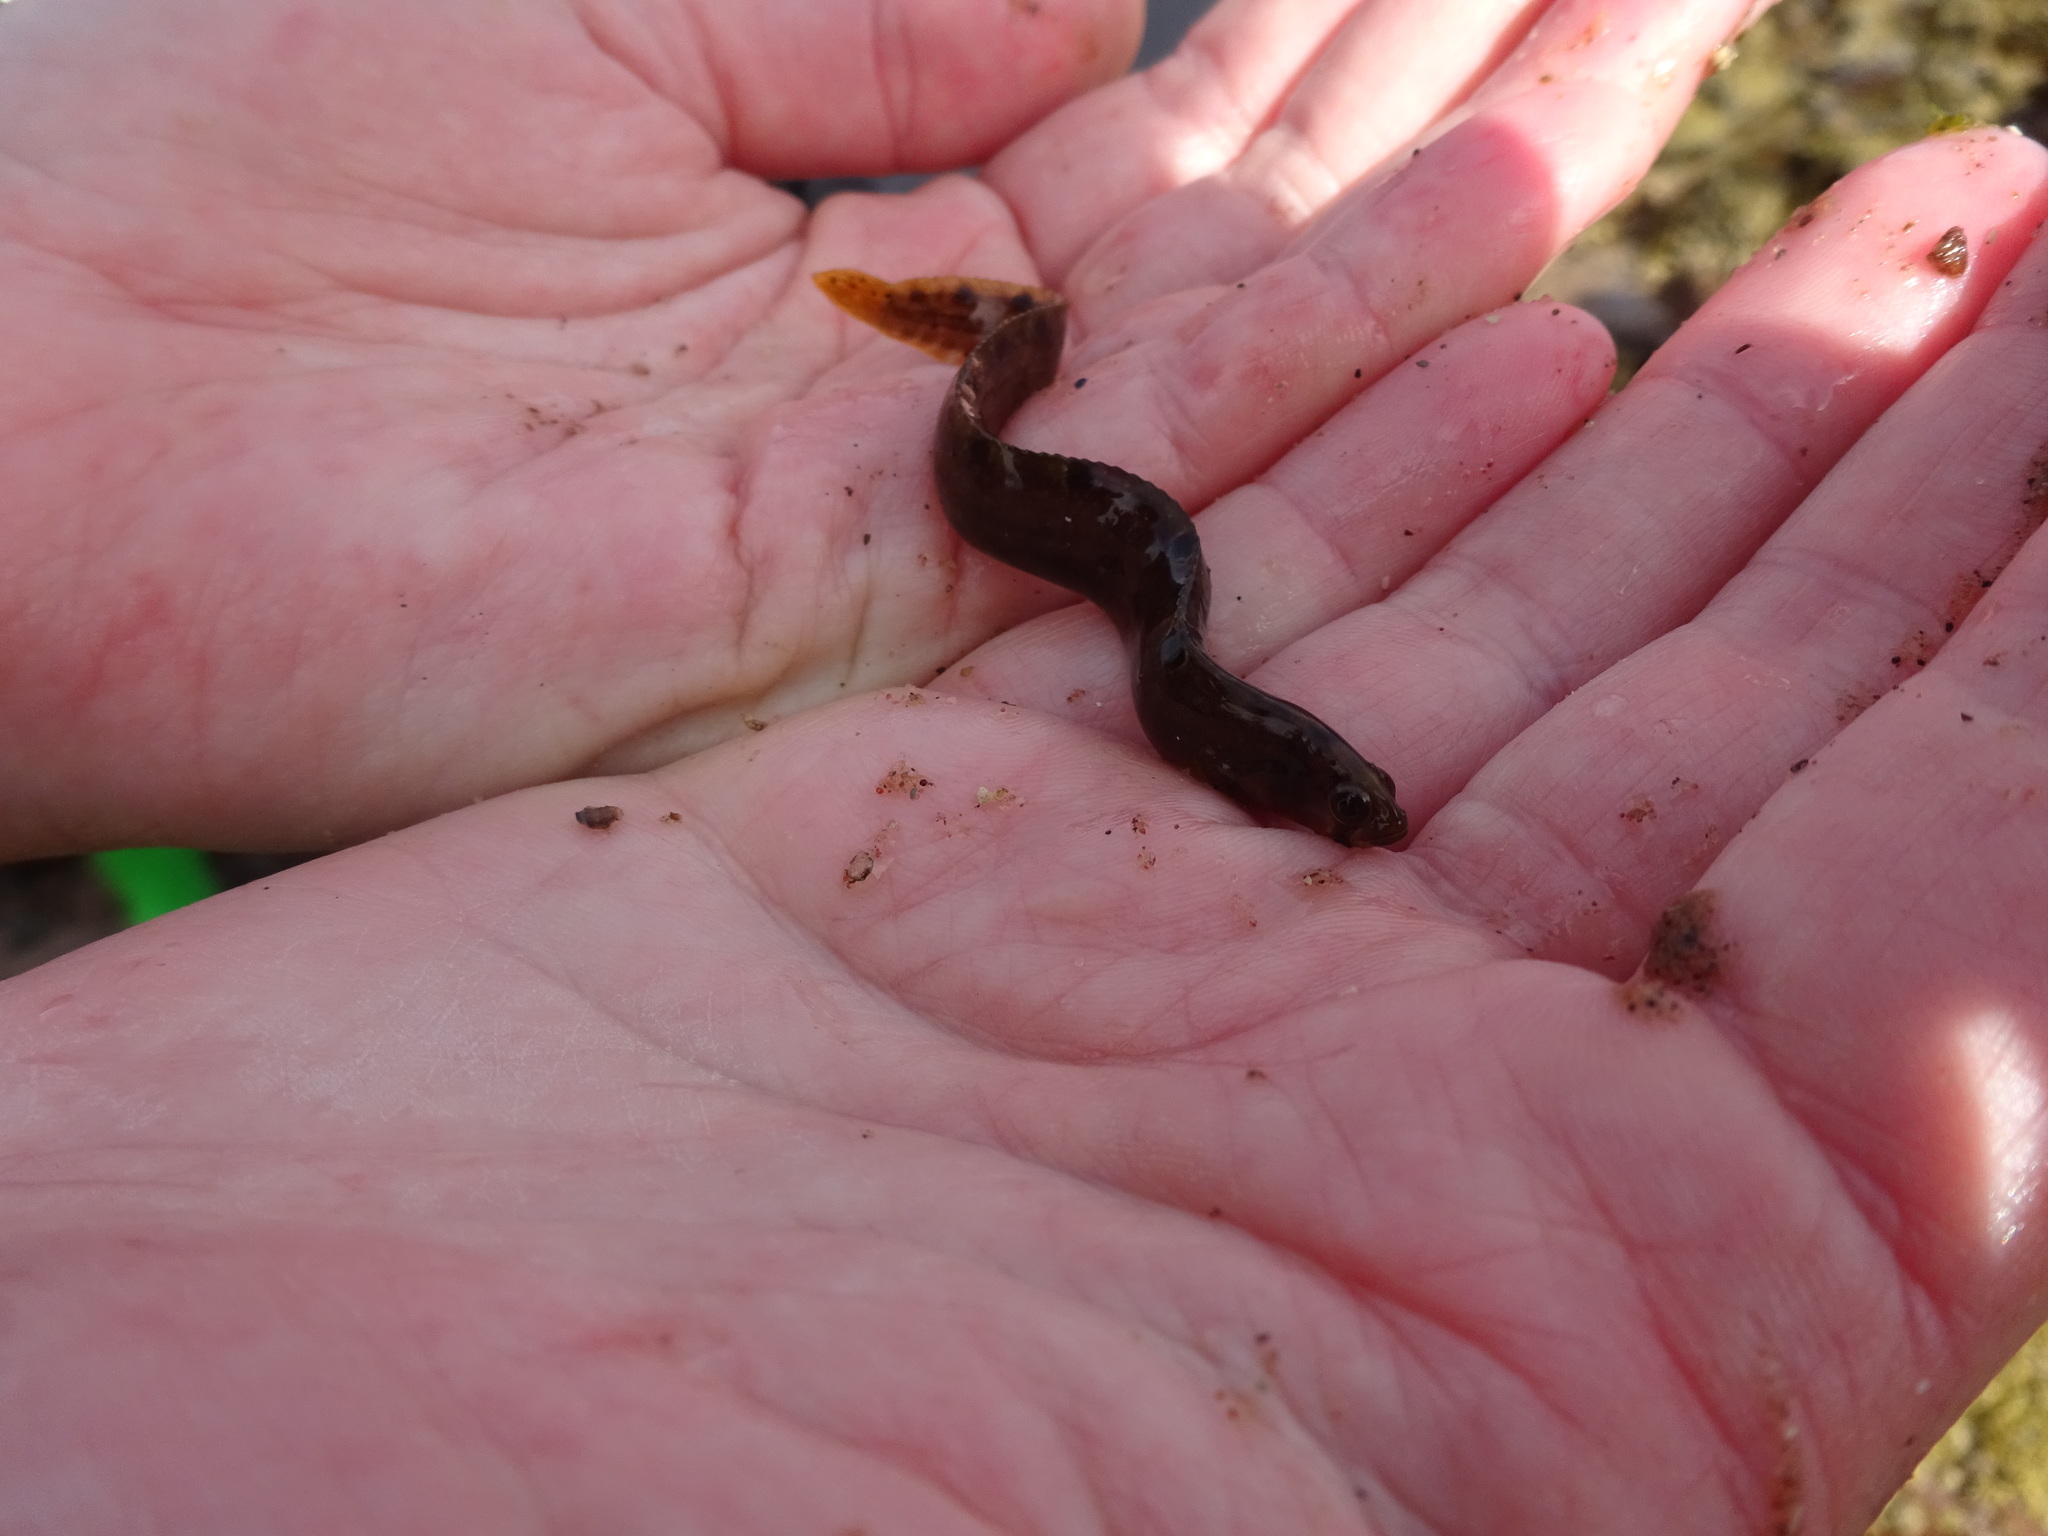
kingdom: Animalia
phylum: Chordata
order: Perciformes
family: Pholidae
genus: Pholis
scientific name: Pholis gunnellus
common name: Butterfish
